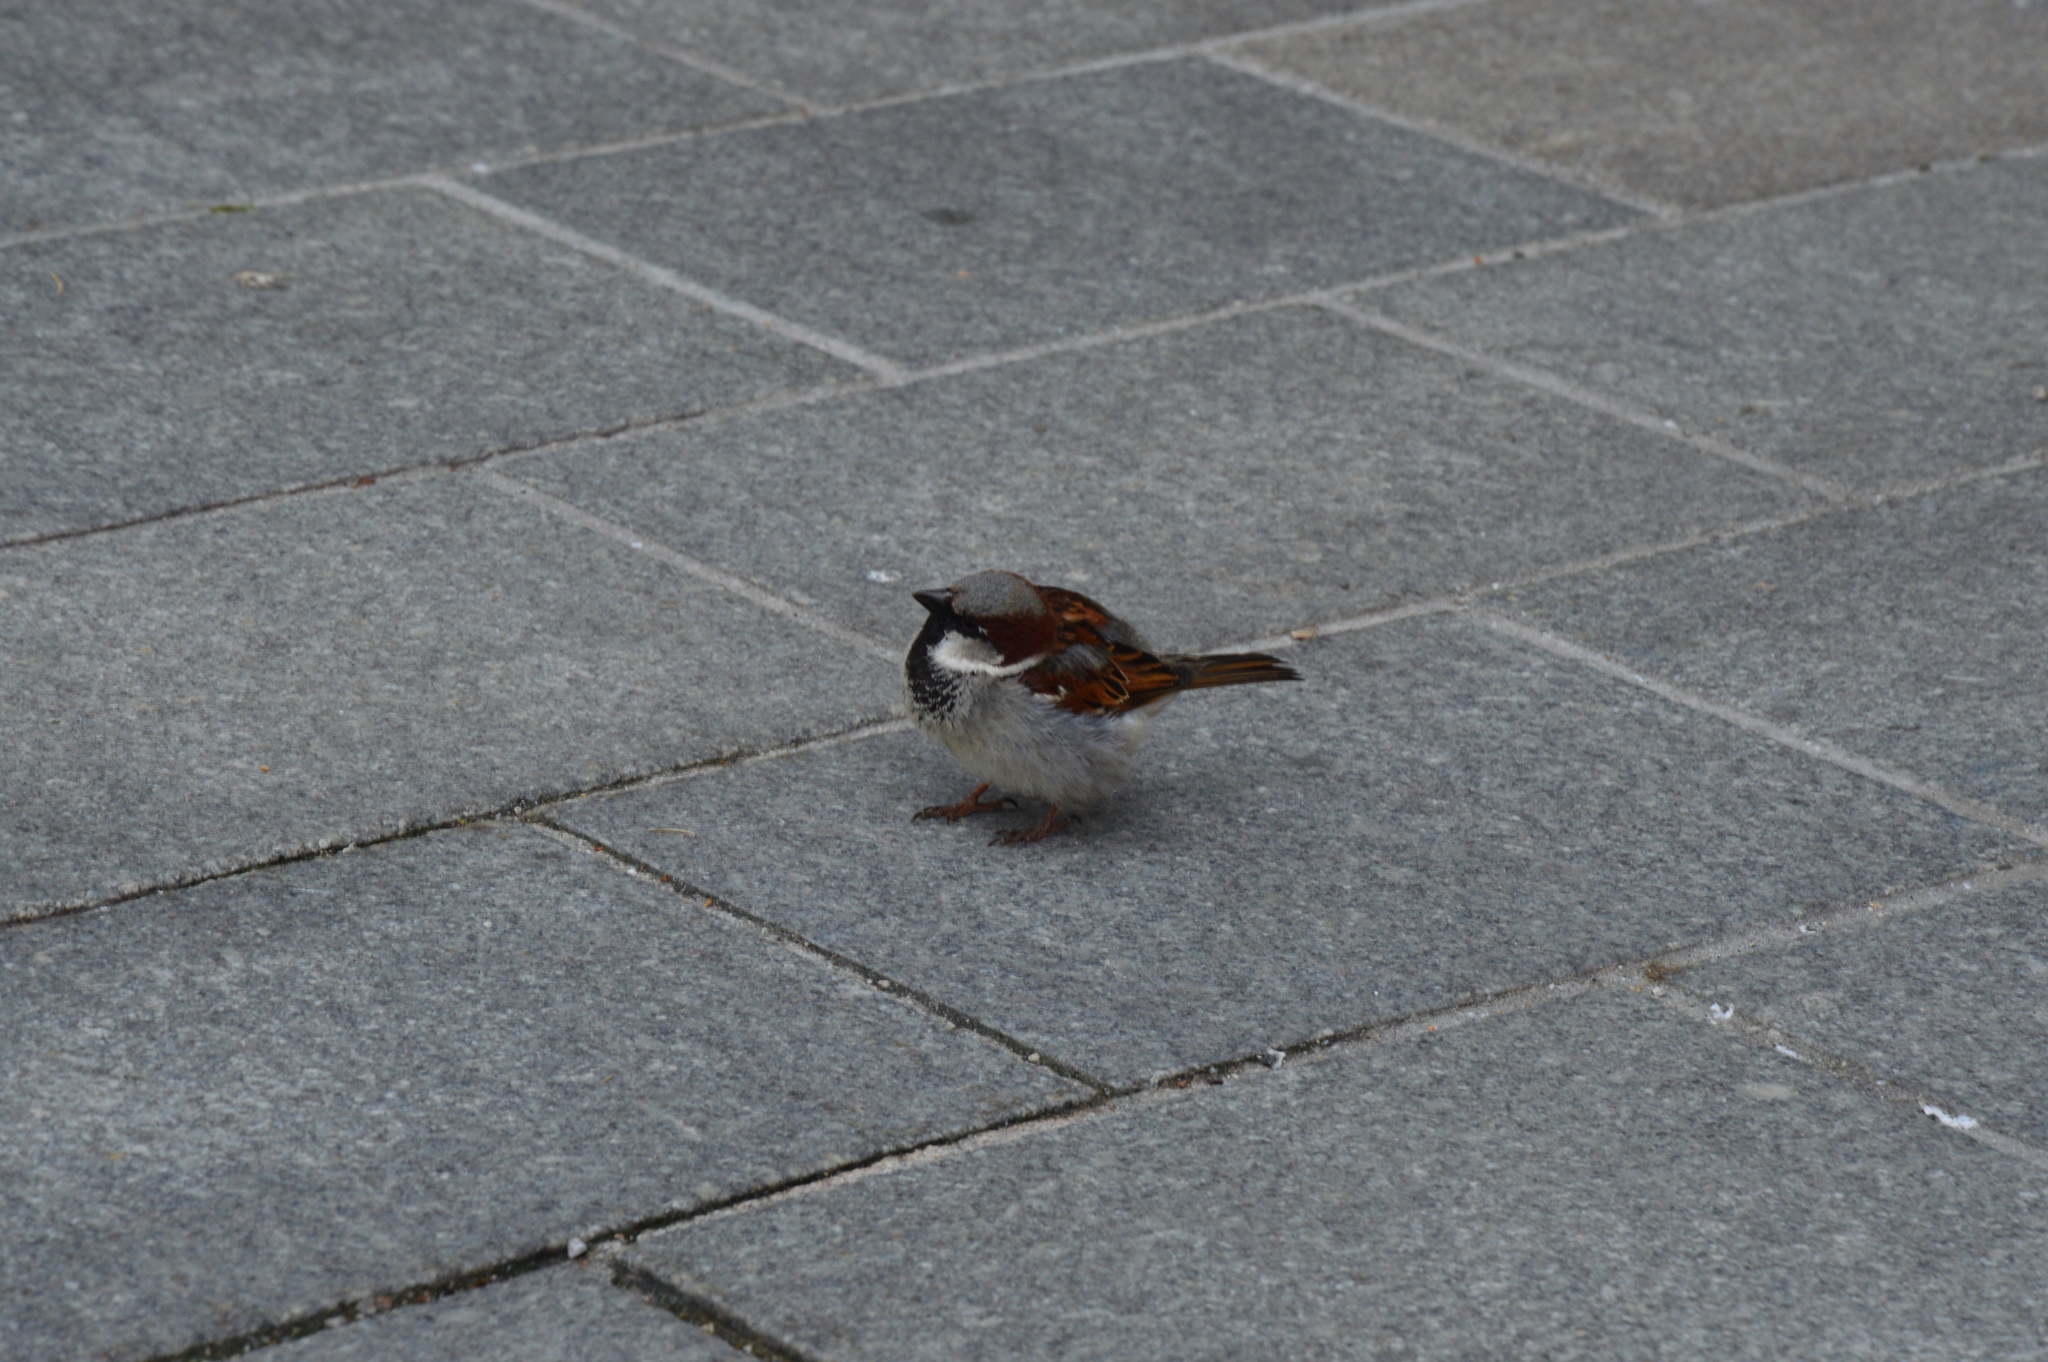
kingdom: Animalia
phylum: Chordata
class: Aves
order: Passeriformes
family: Passeridae
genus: Passer
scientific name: Passer domesticus
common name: House sparrow
